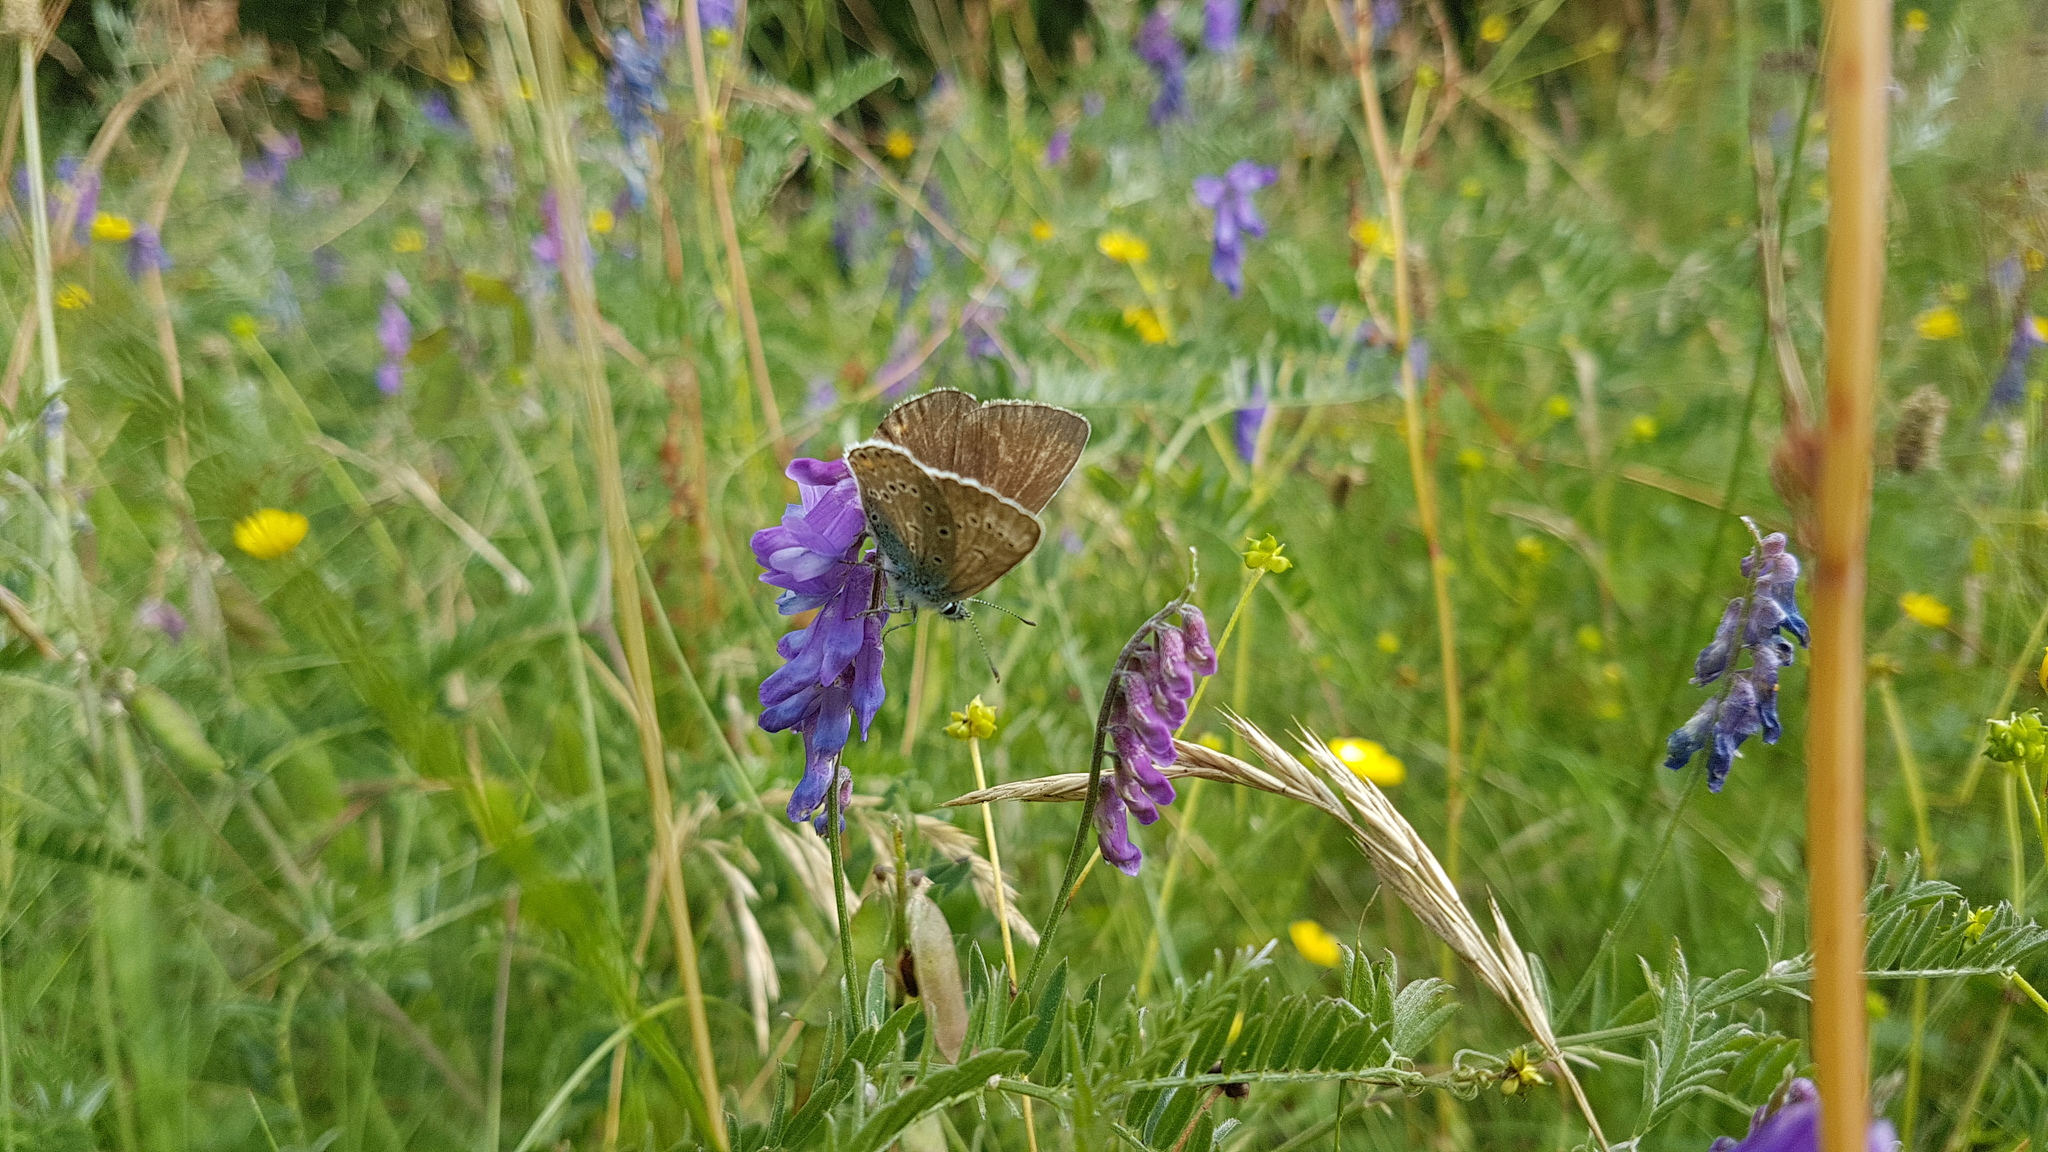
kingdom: Animalia
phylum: Arthropoda
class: Insecta
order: Lepidoptera
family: Lycaenidae
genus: Plebejus
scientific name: Plebejus amanda
